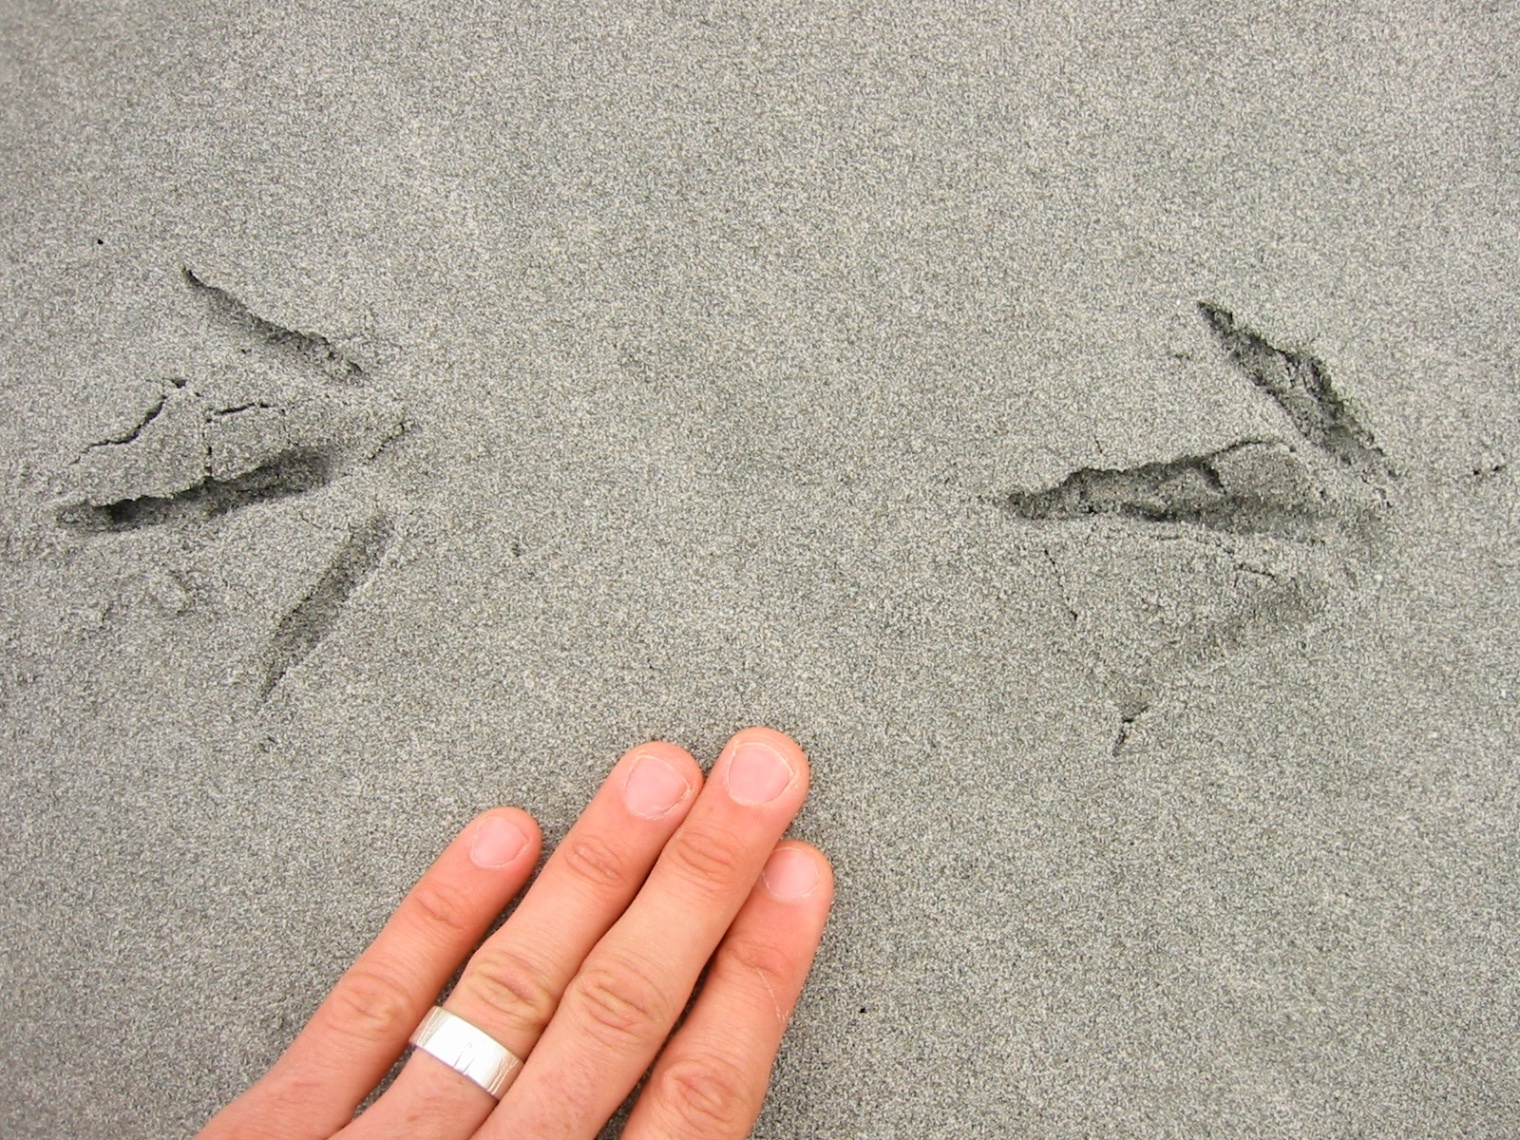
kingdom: Animalia
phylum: Chordata
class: Aves
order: Charadriiformes
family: Haematopodidae
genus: Haematopus
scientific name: Haematopus finschi
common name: South island oystercatcher
